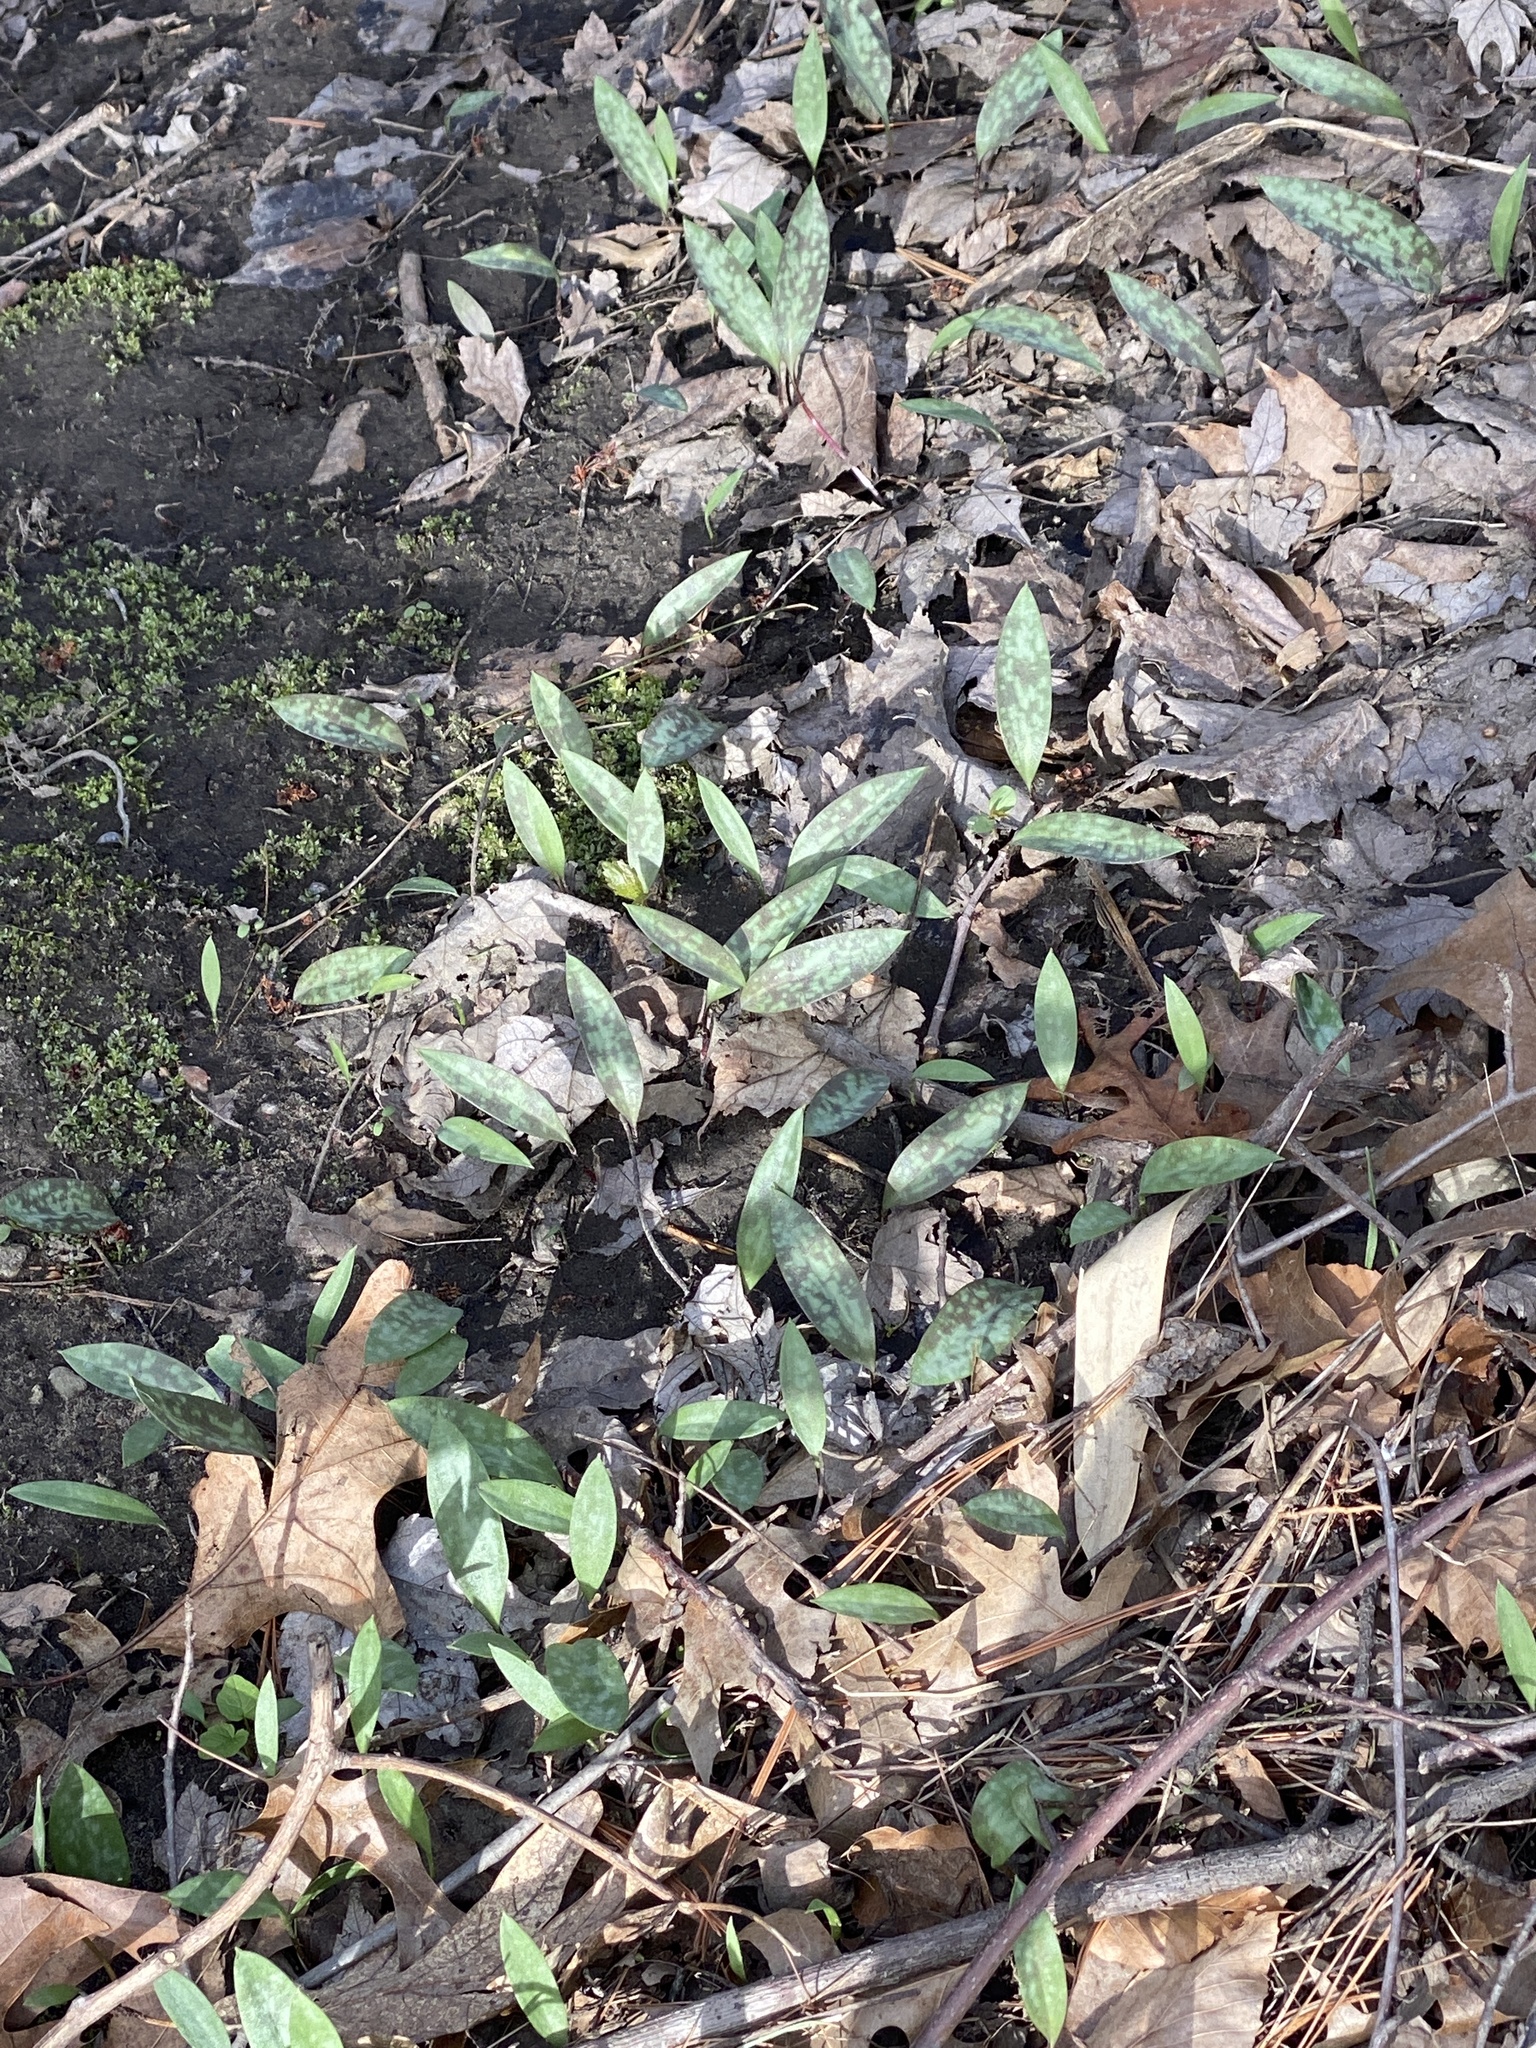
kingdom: Plantae
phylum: Tracheophyta
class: Liliopsida
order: Liliales
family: Liliaceae
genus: Erythronium
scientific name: Erythronium americanum
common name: Yellow adder's-tongue
